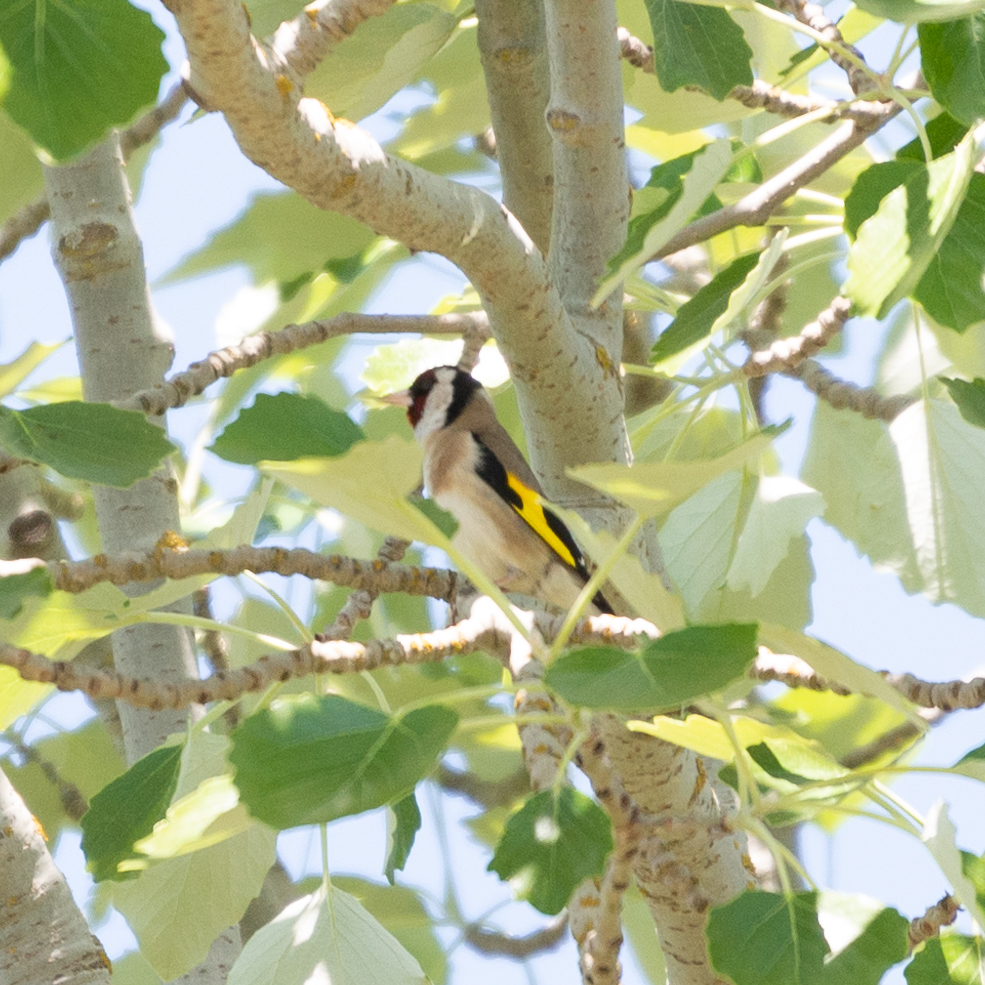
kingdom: Animalia
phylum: Chordata
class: Aves
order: Passeriformes
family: Fringillidae
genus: Carduelis
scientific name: Carduelis carduelis
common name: European goldfinch
